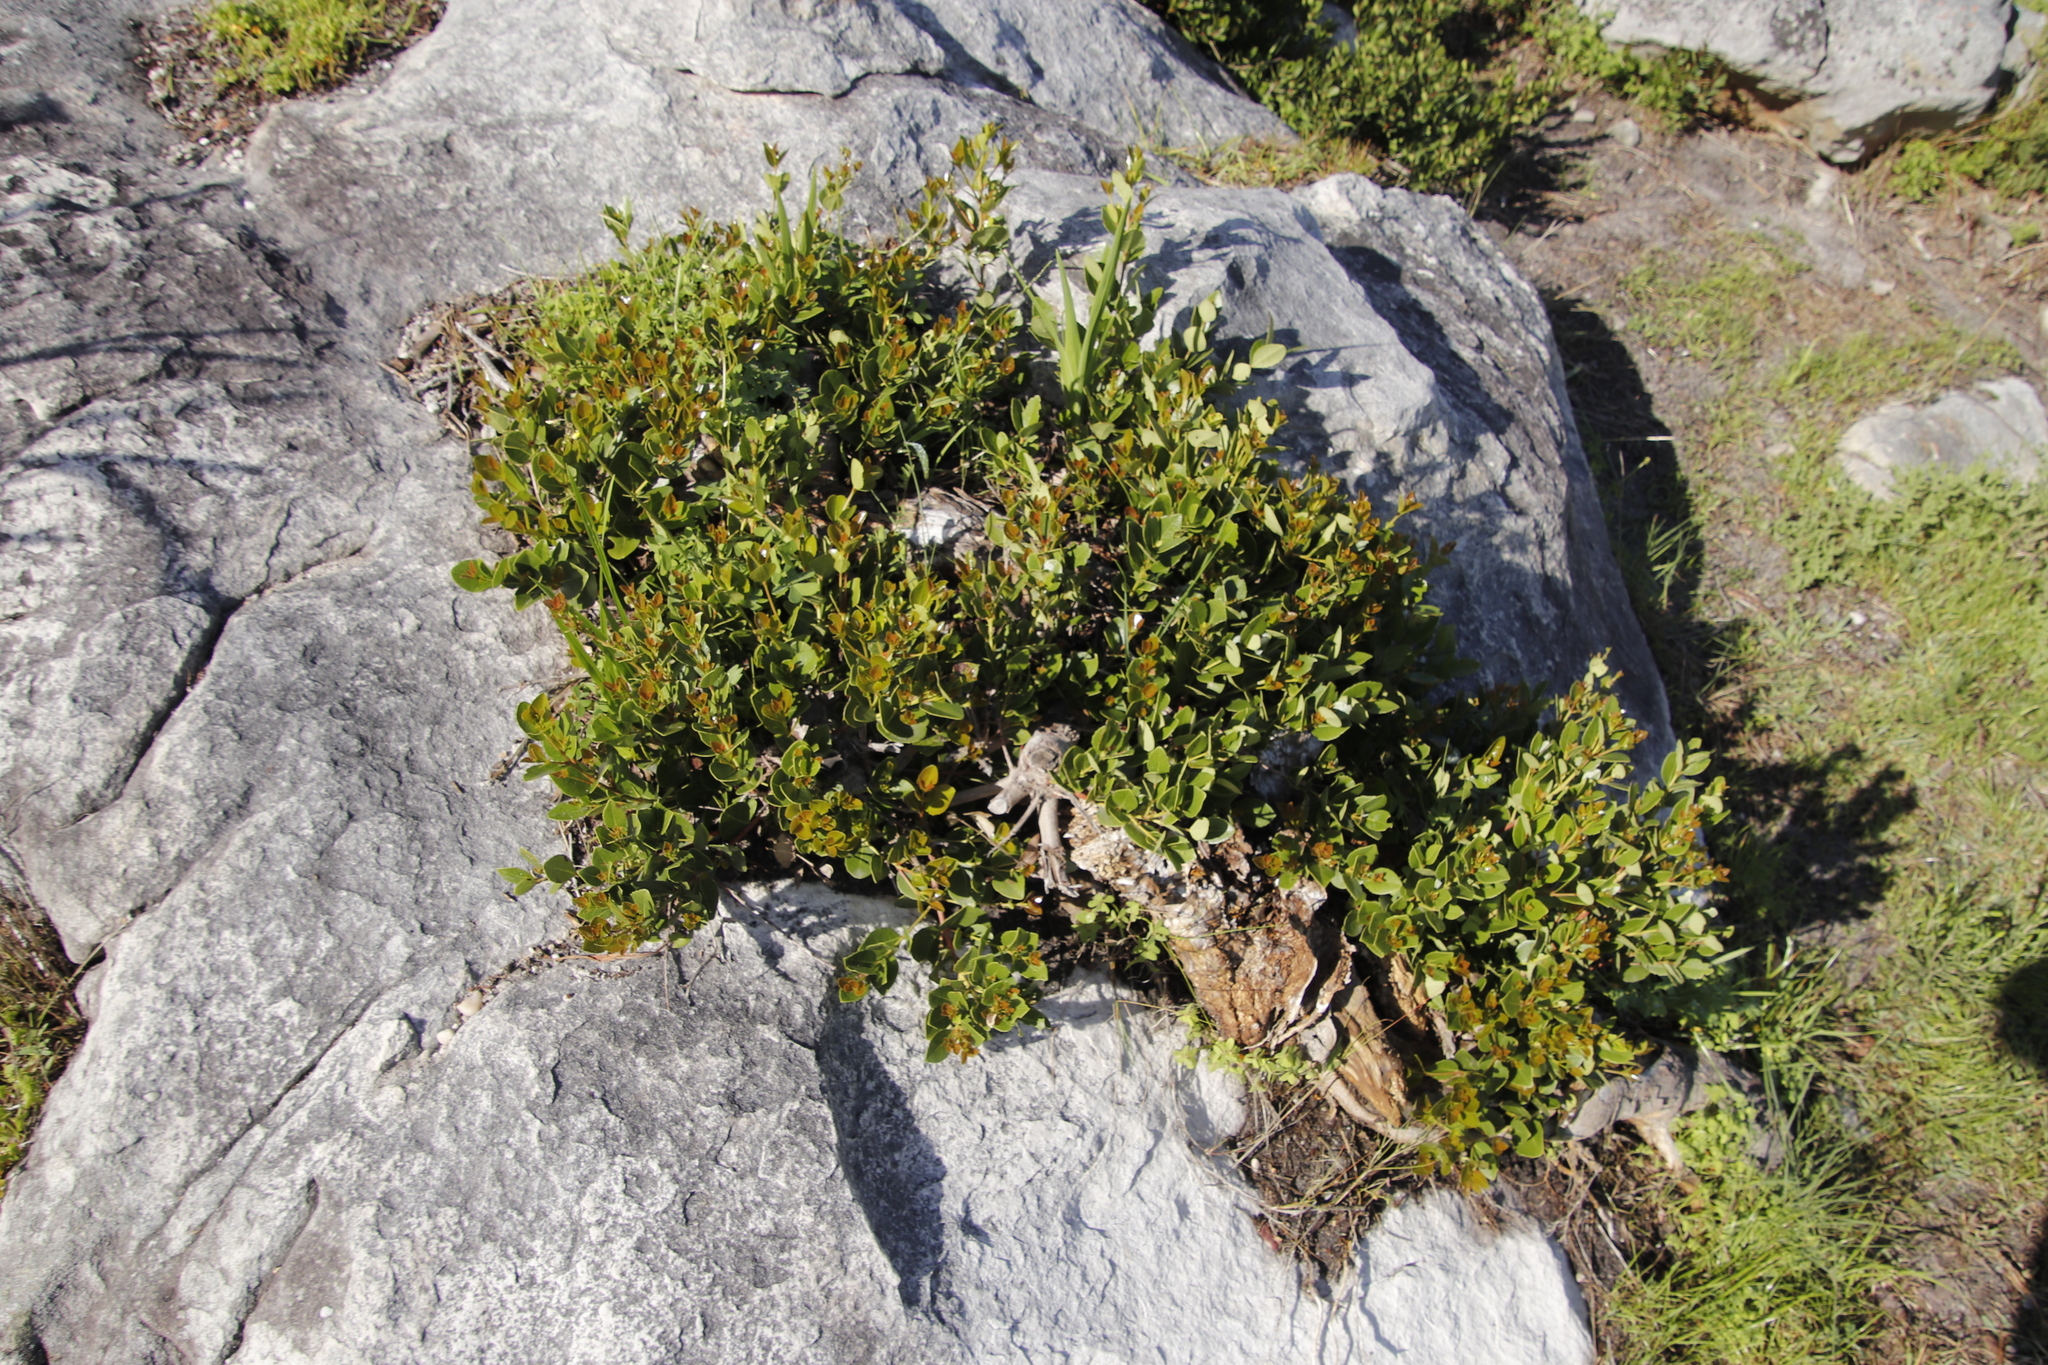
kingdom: Plantae
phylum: Tracheophyta
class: Magnoliopsida
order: Celastrales
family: Celastraceae
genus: Cassine
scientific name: Cassine peragua
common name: Cape saffron
